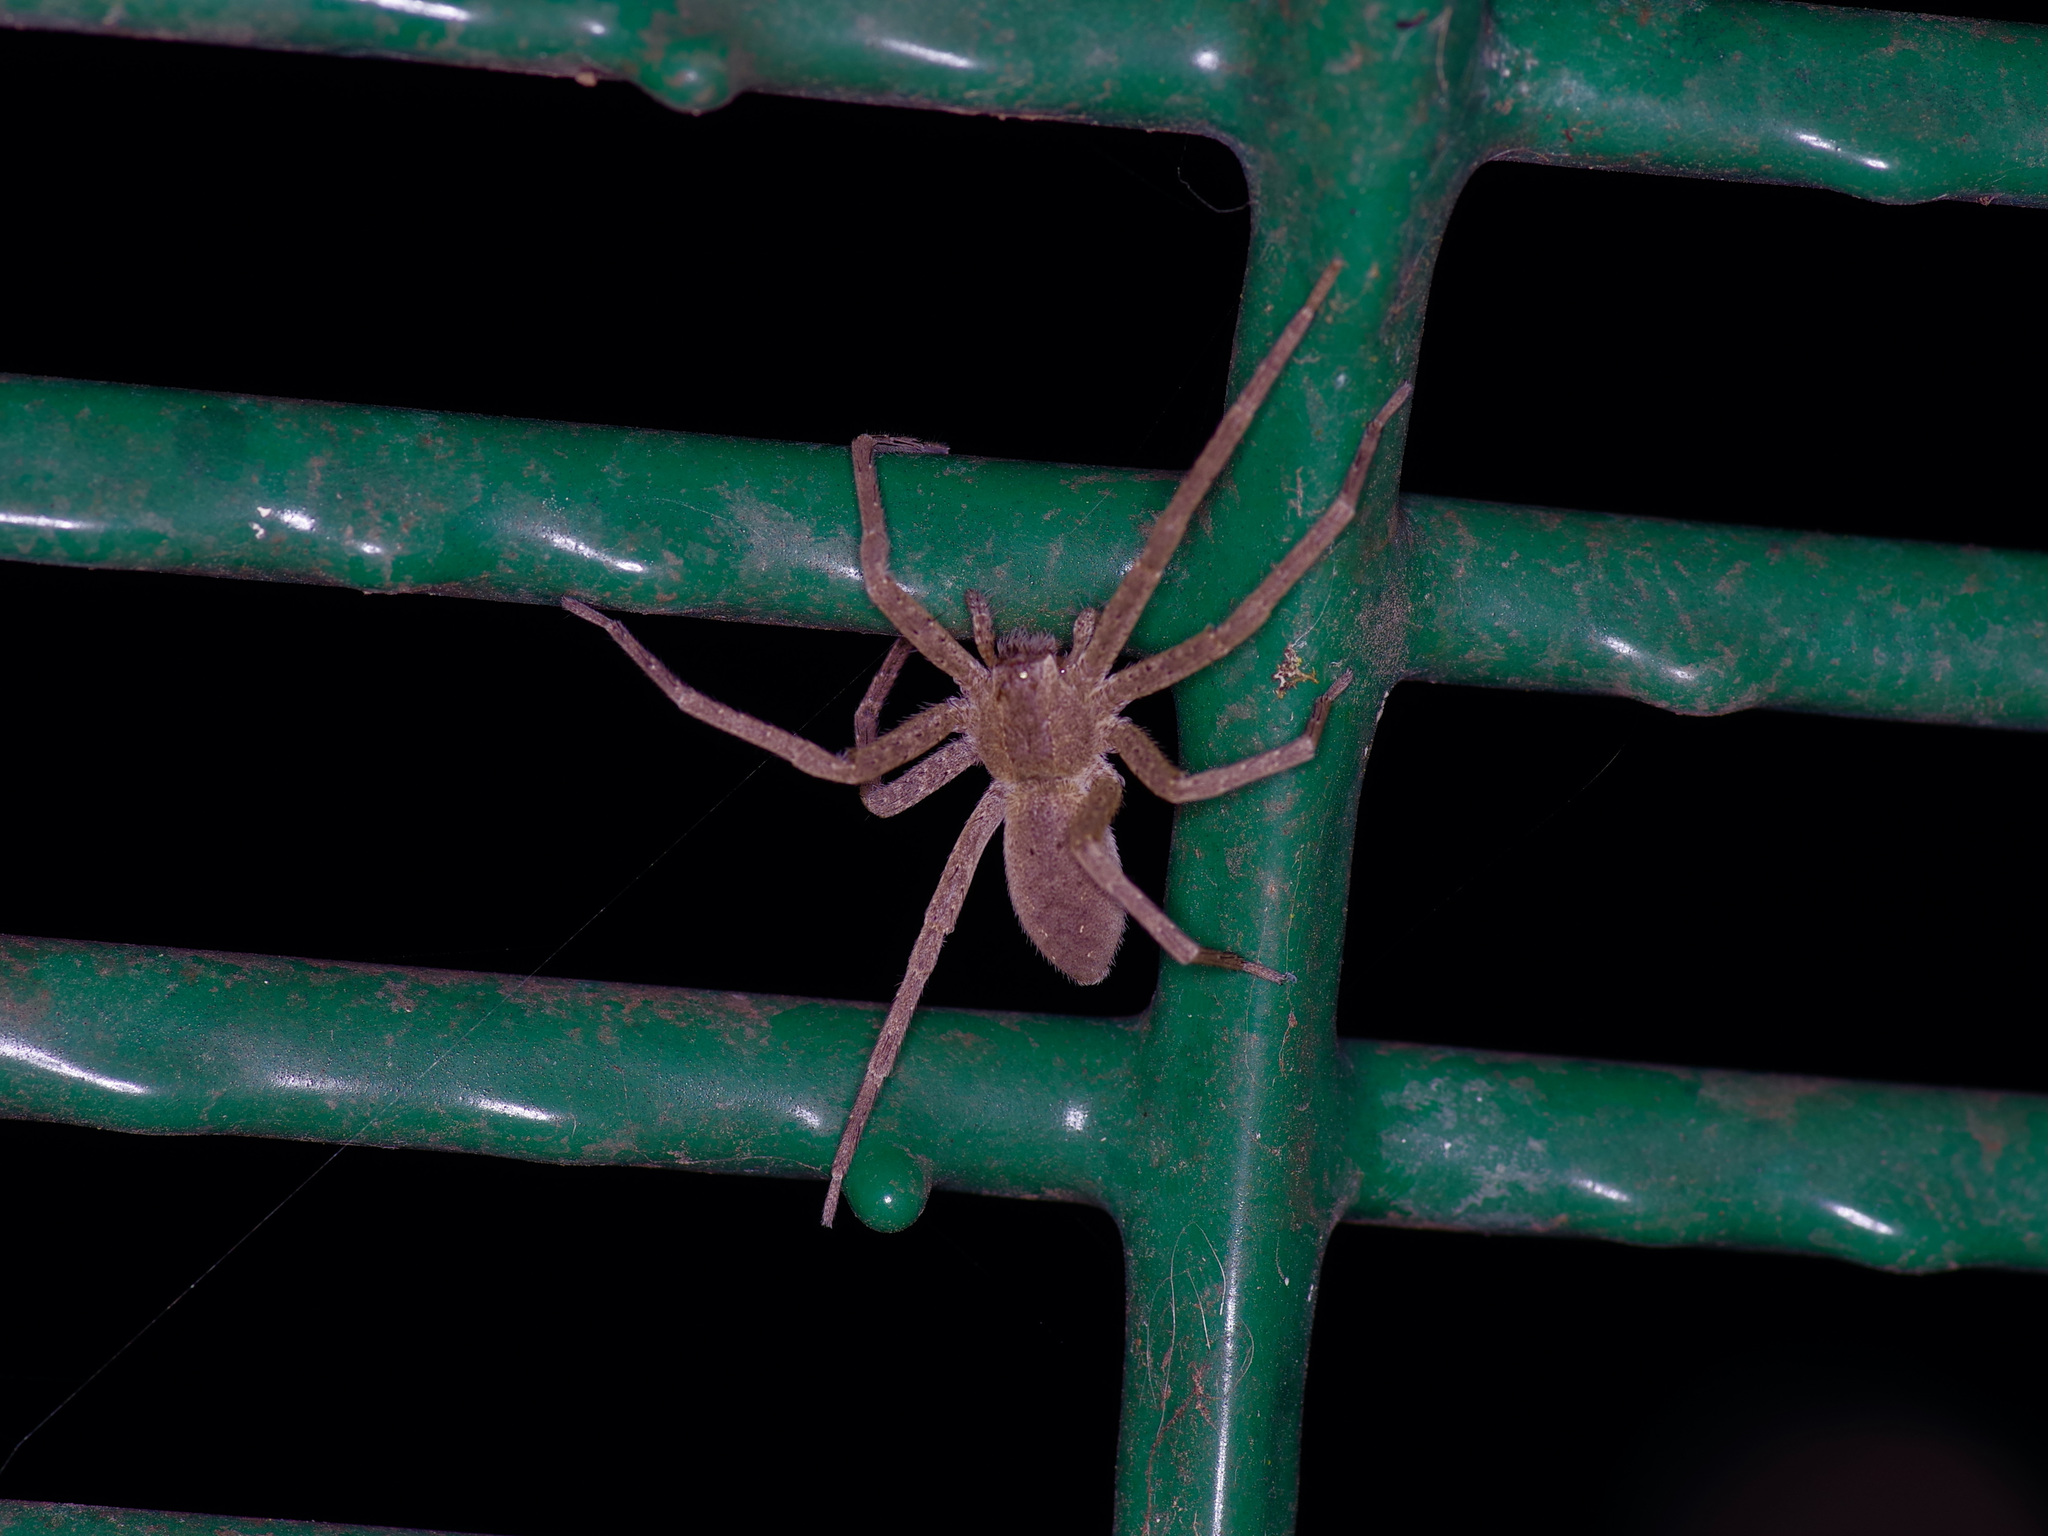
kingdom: Animalia
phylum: Arthropoda
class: Arachnida
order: Araneae
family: Pisauridae
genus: Pisaurina
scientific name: Pisaurina mira
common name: American nursery web spider
